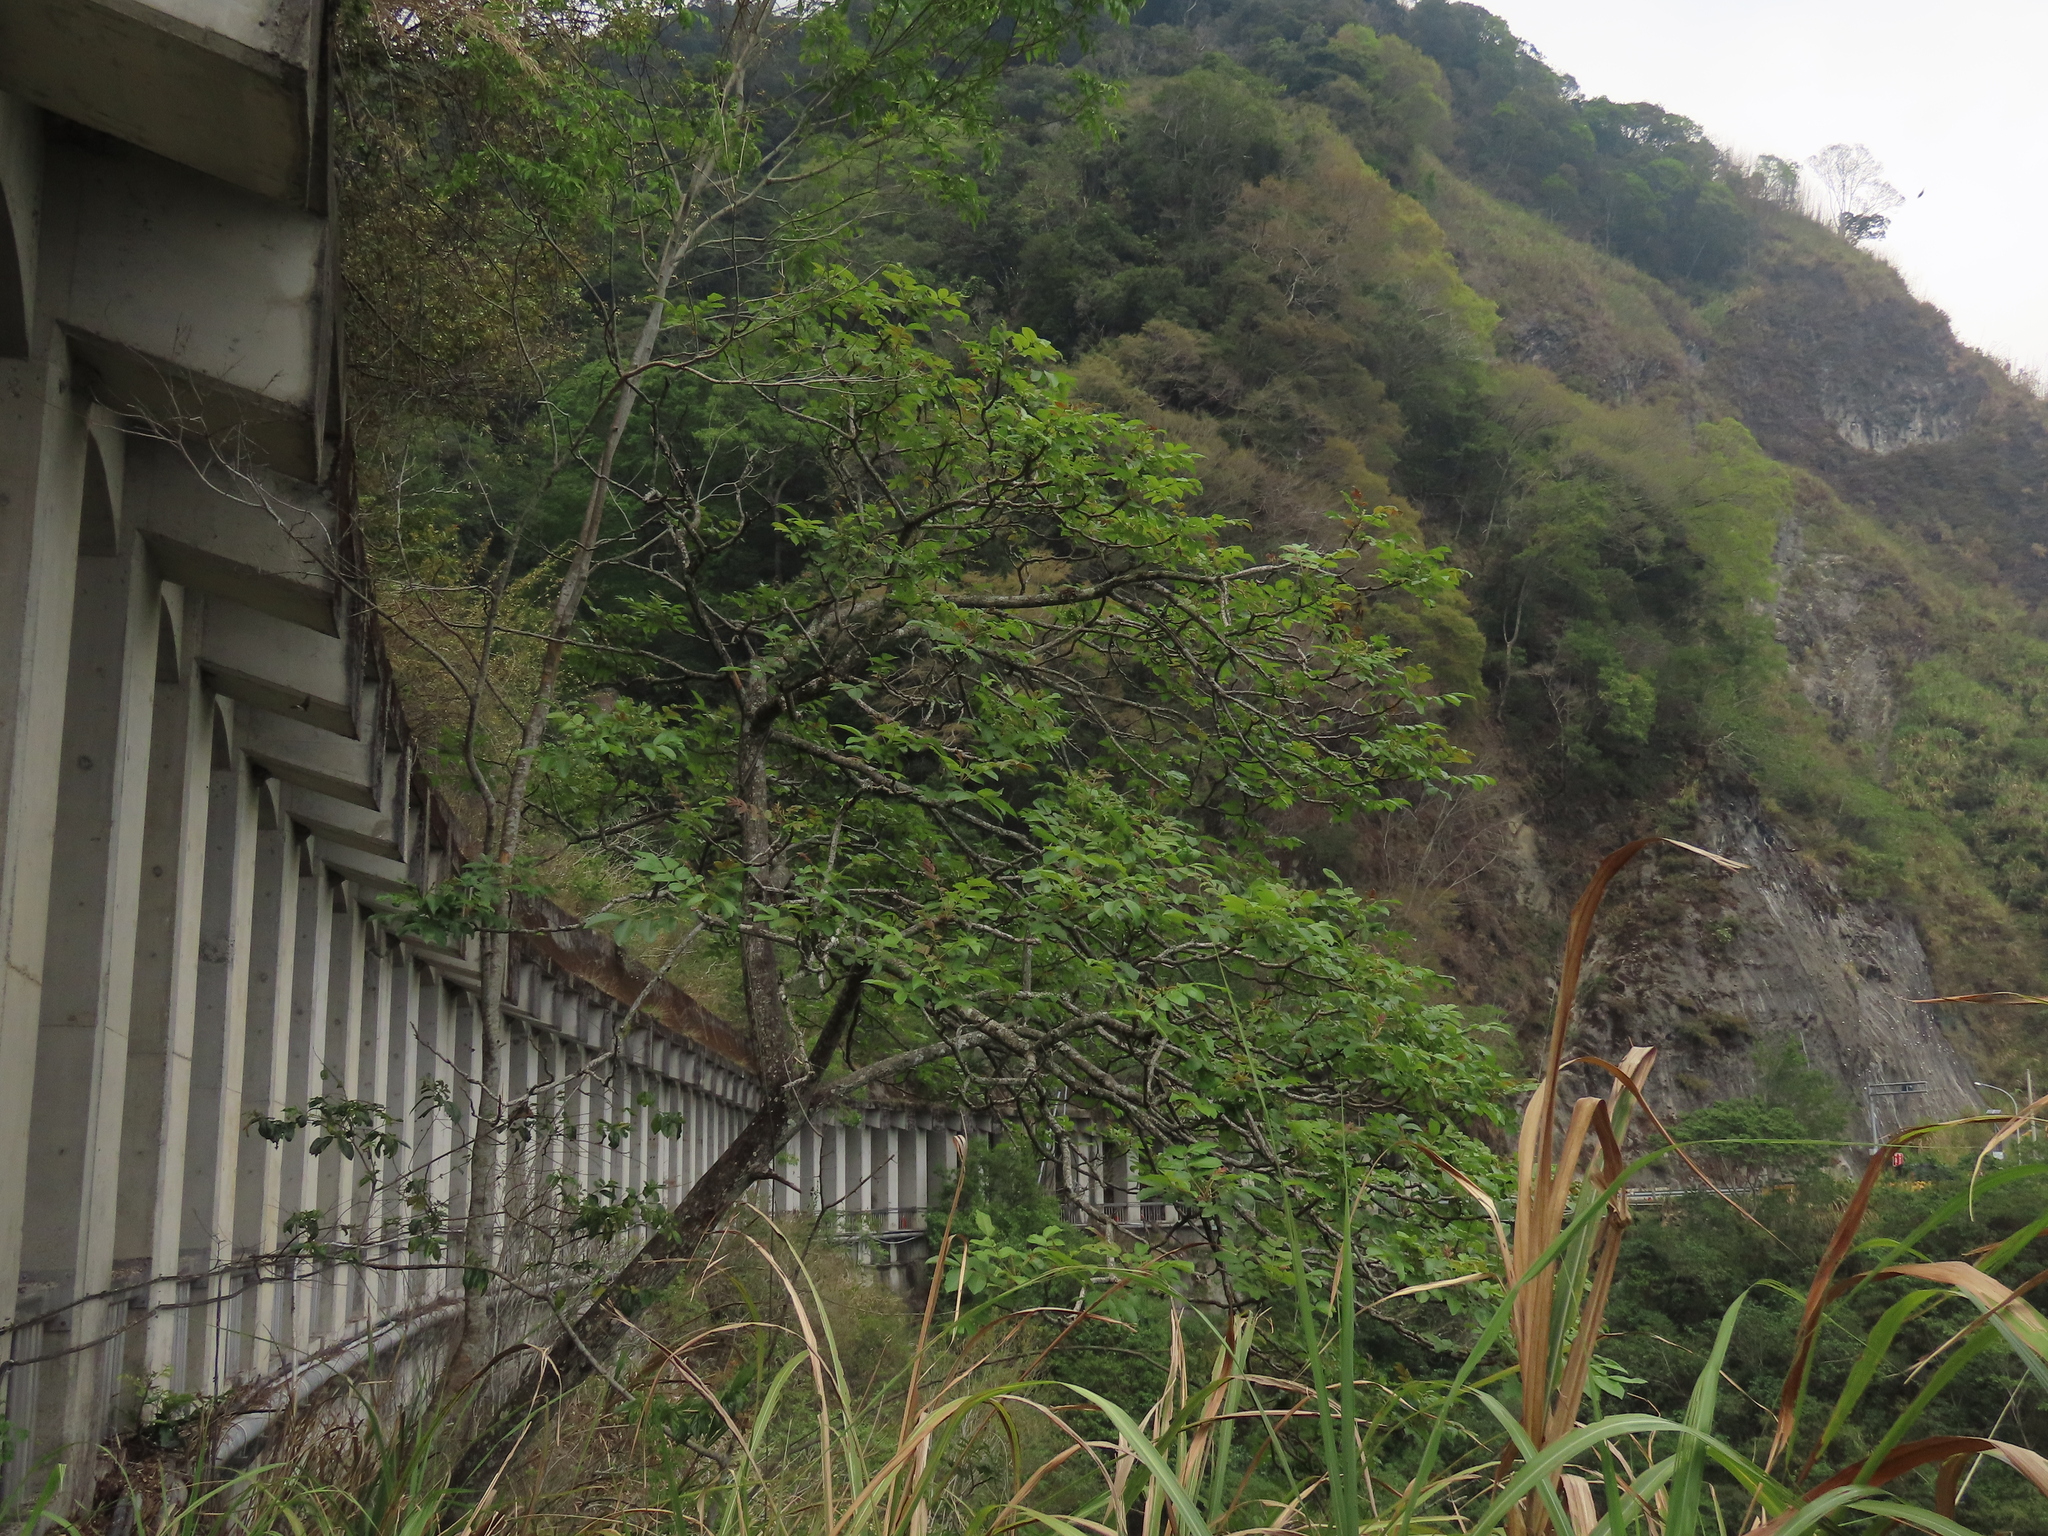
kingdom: Plantae
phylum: Tracheophyta
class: Magnoliopsida
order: Sapindales
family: Anacardiaceae
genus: Rhus
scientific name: Rhus chinensis
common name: Chinese gall
